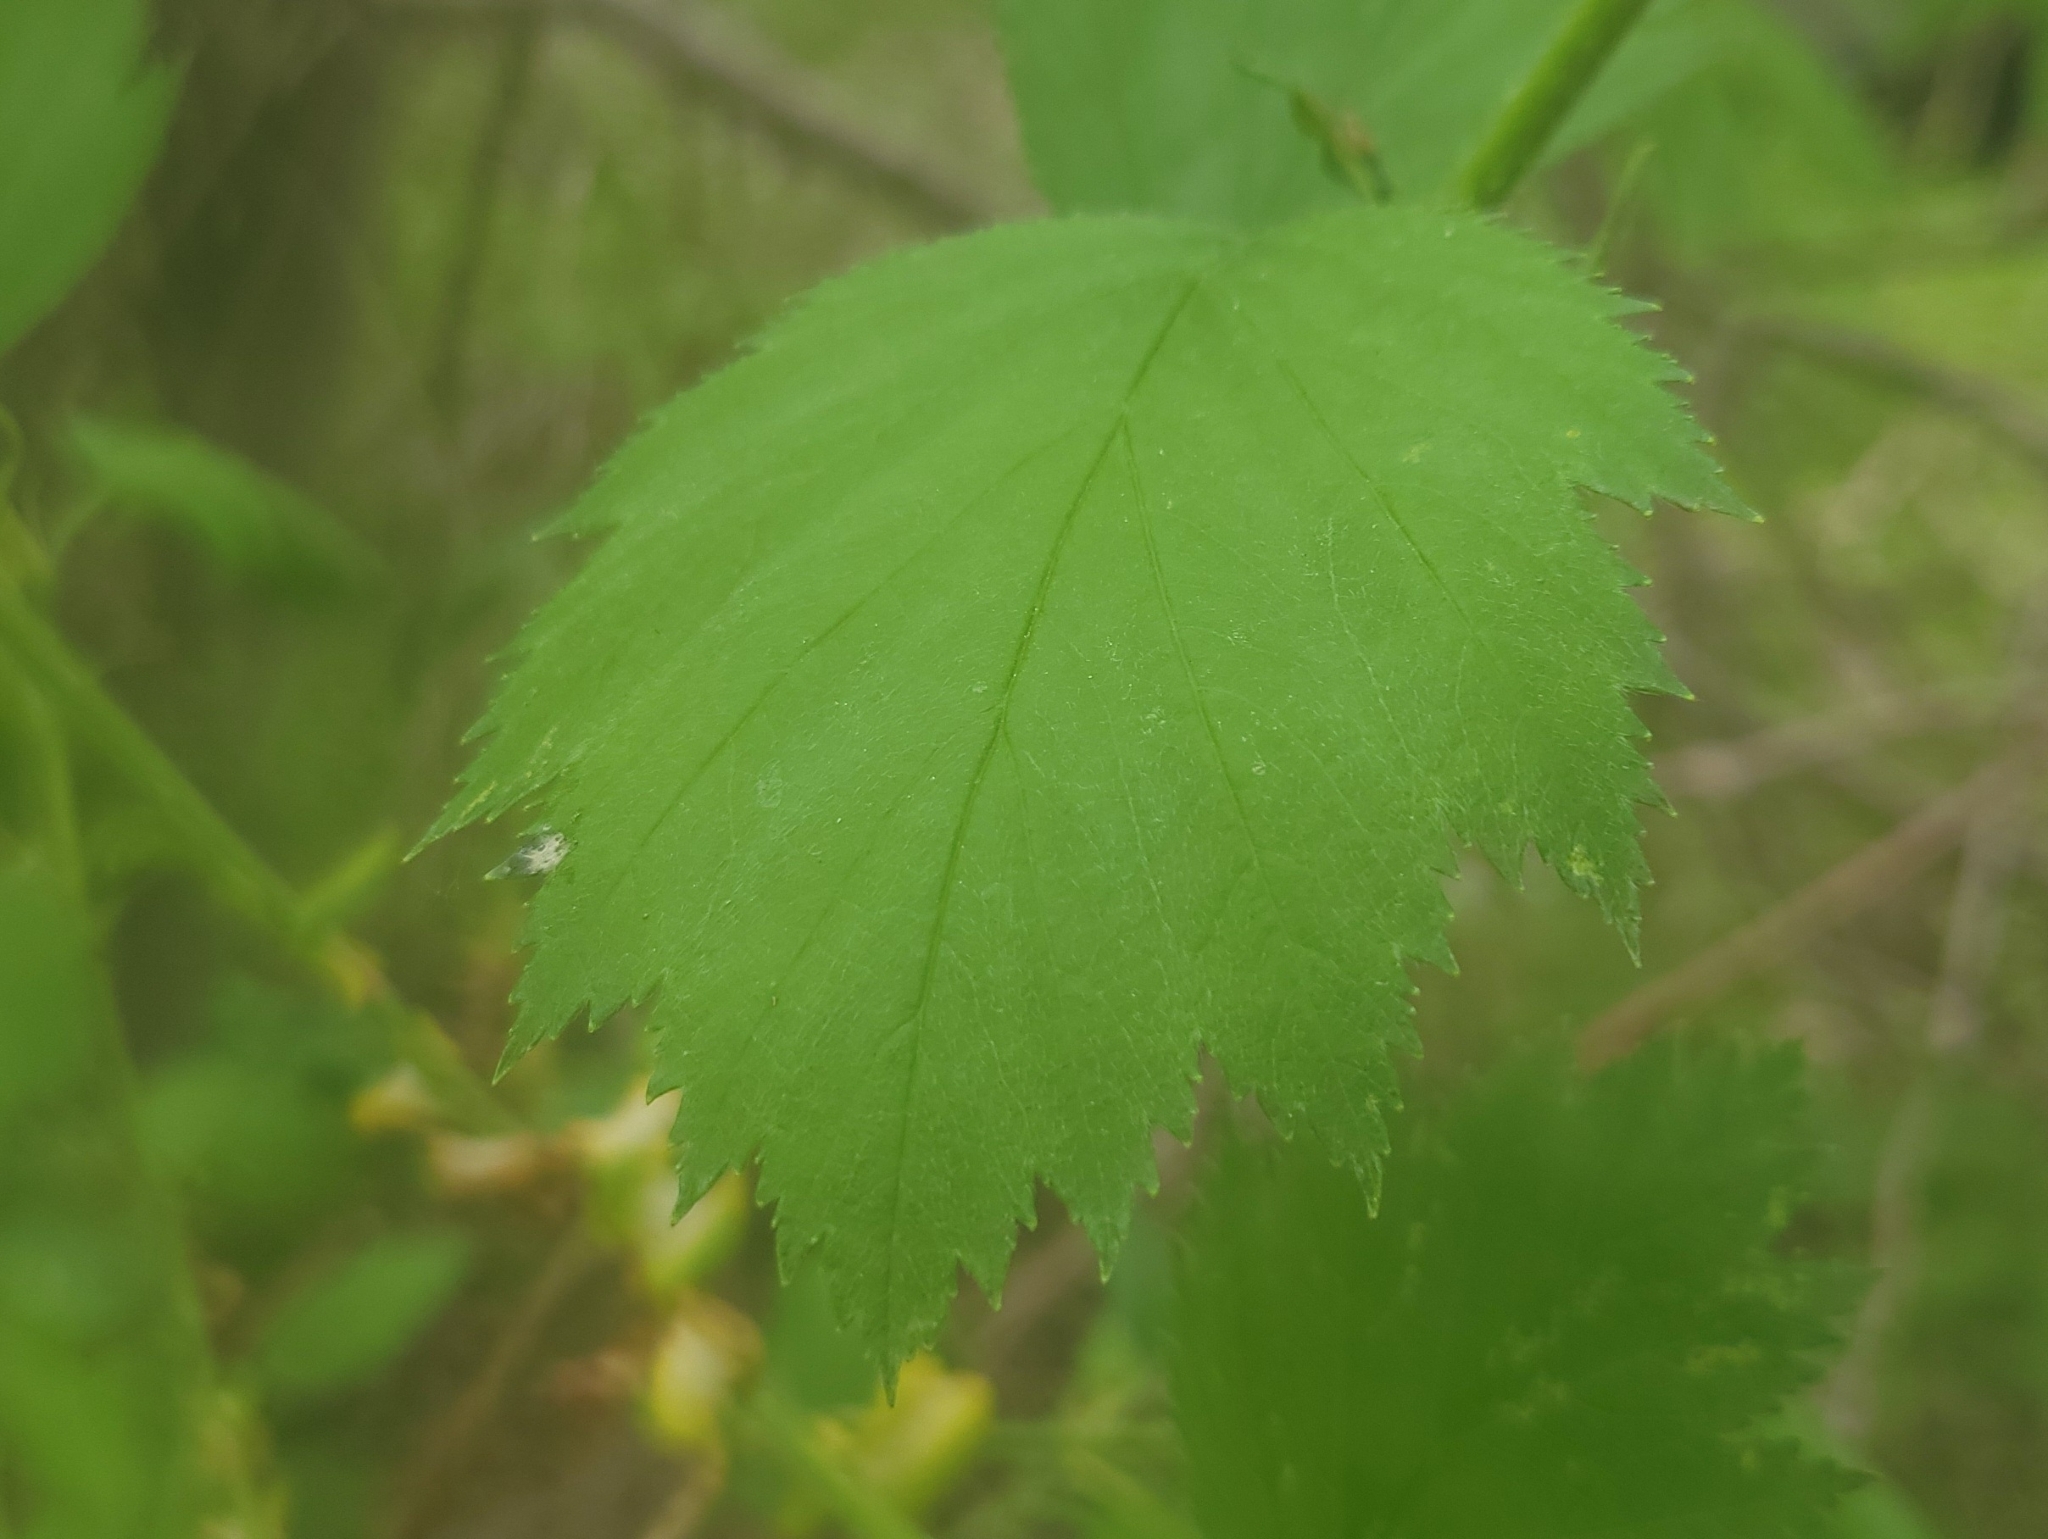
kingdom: Plantae
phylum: Tracheophyta
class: Magnoliopsida
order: Rosales
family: Rosaceae
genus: Crataegus
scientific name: Crataegus submollis
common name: Hairy cockspurthorn
